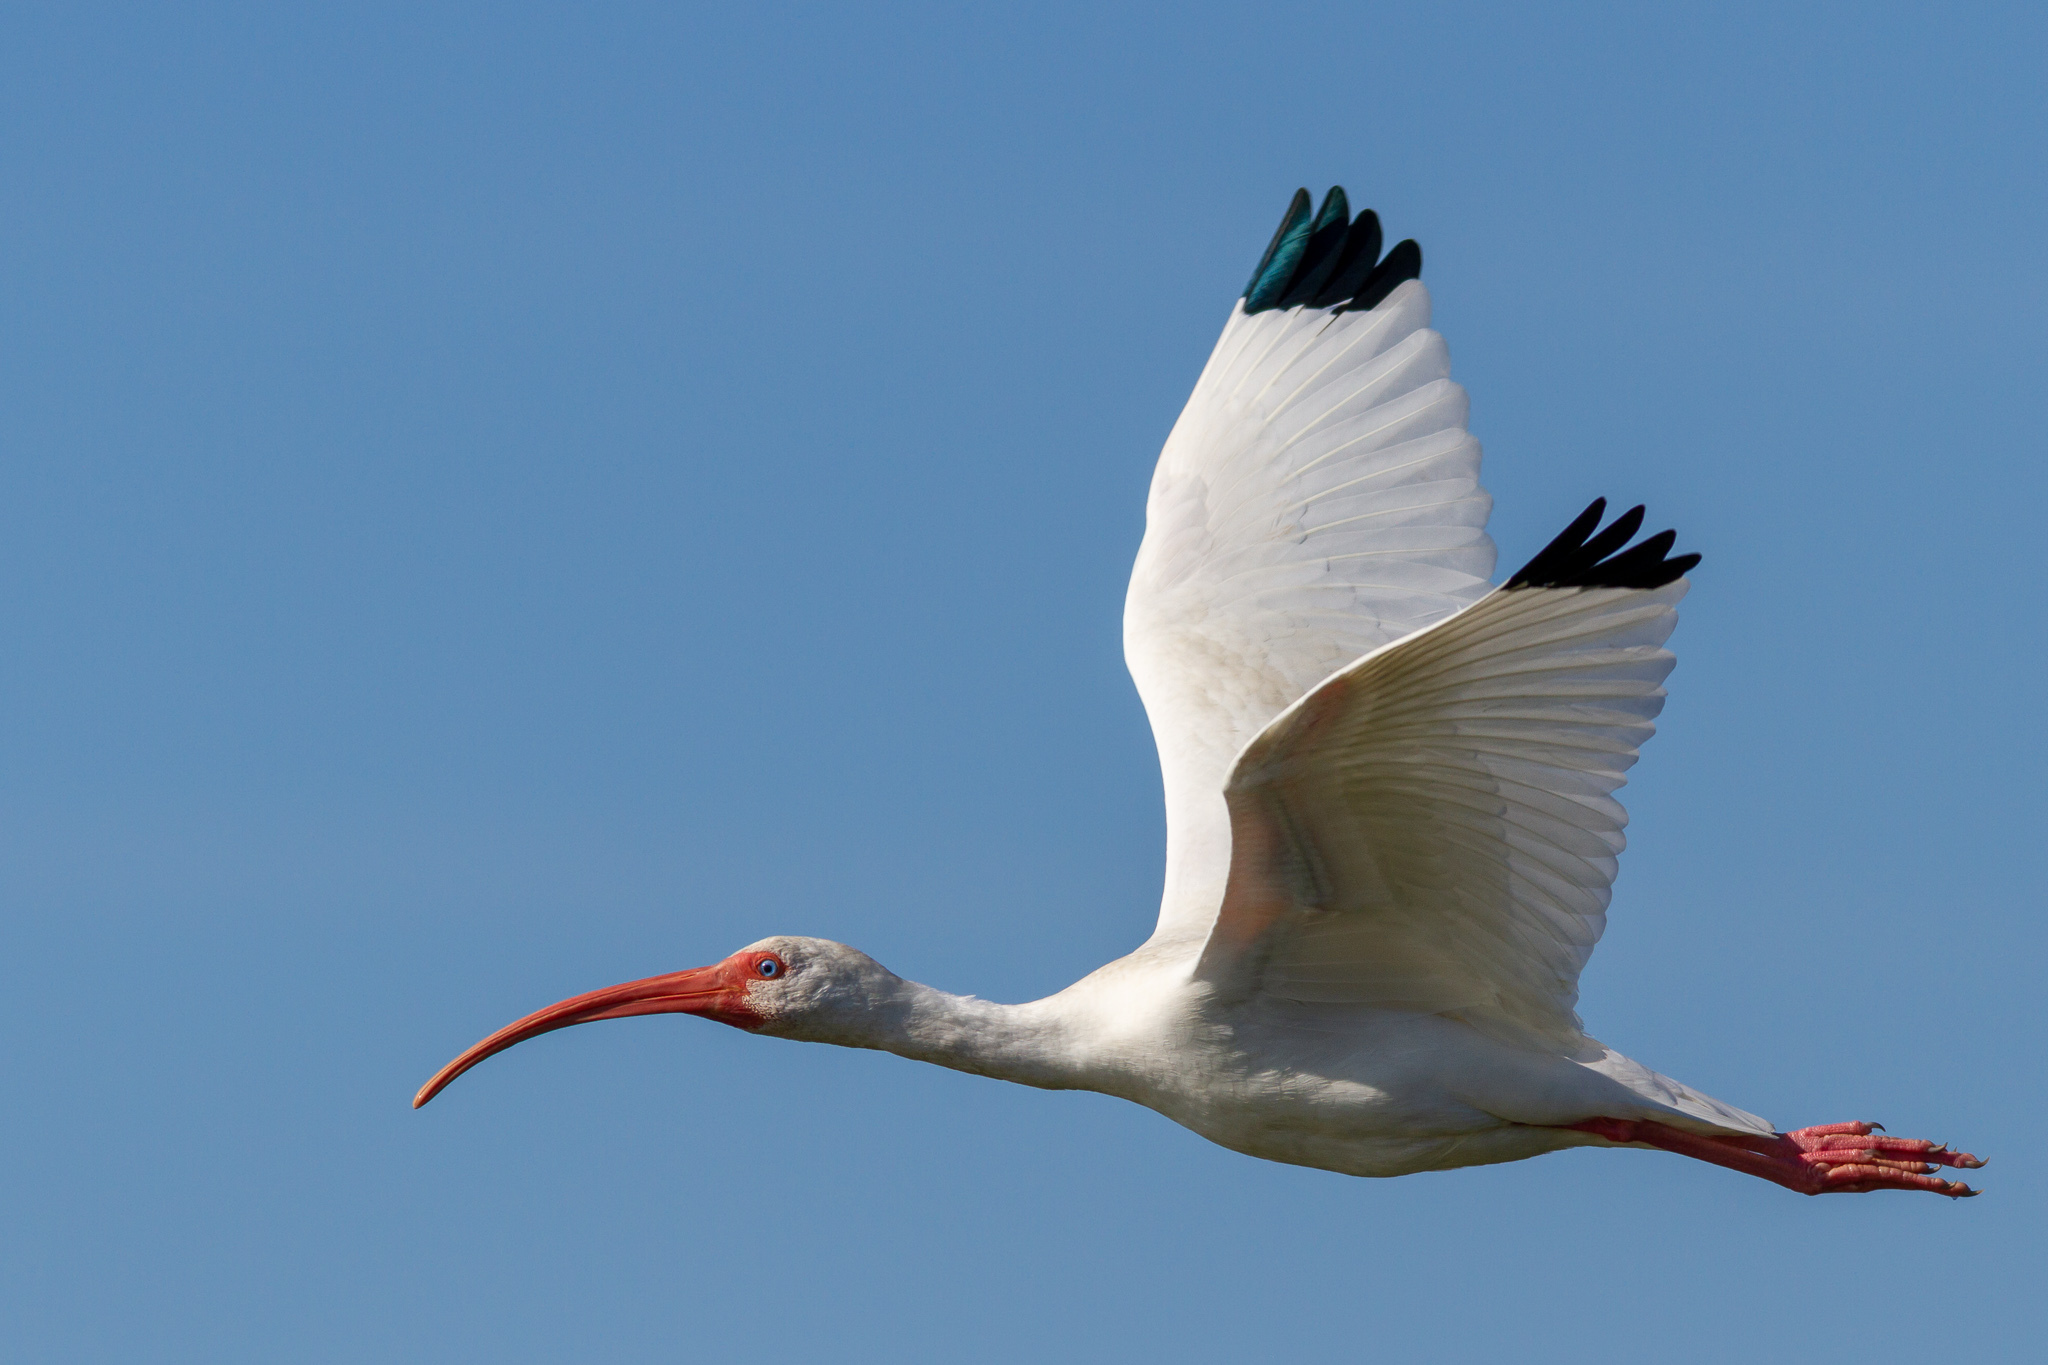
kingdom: Animalia
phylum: Chordata
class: Aves
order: Pelecaniformes
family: Threskiornithidae
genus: Eudocimus
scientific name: Eudocimus albus
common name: White ibis
